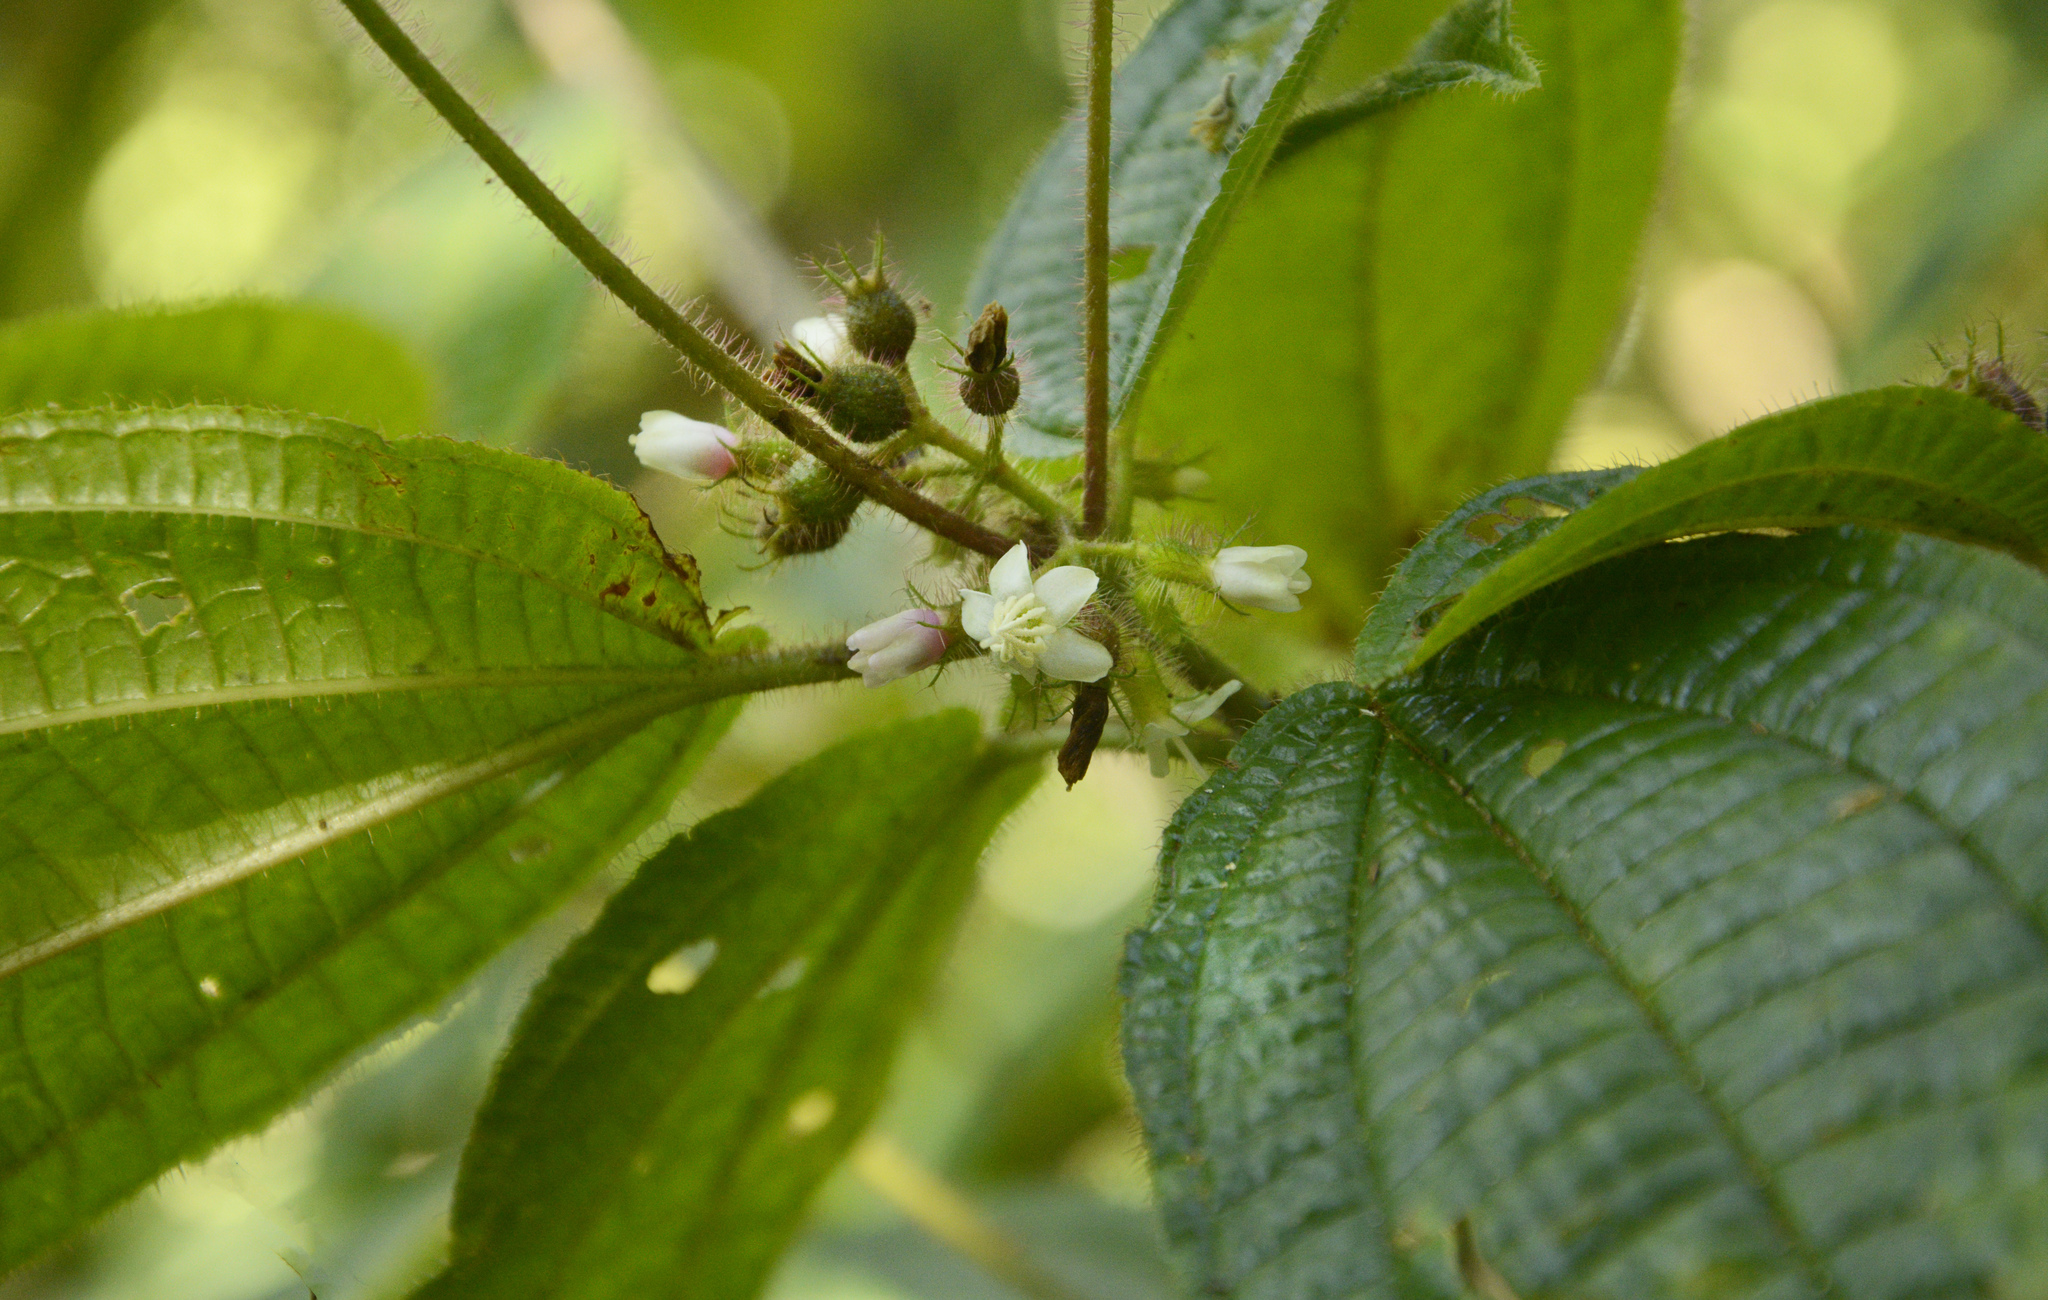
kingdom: Plantae
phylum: Tracheophyta
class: Magnoliopsida
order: Myrtales
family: Melastomataceae
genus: Miconia
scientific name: Miconia crenata
